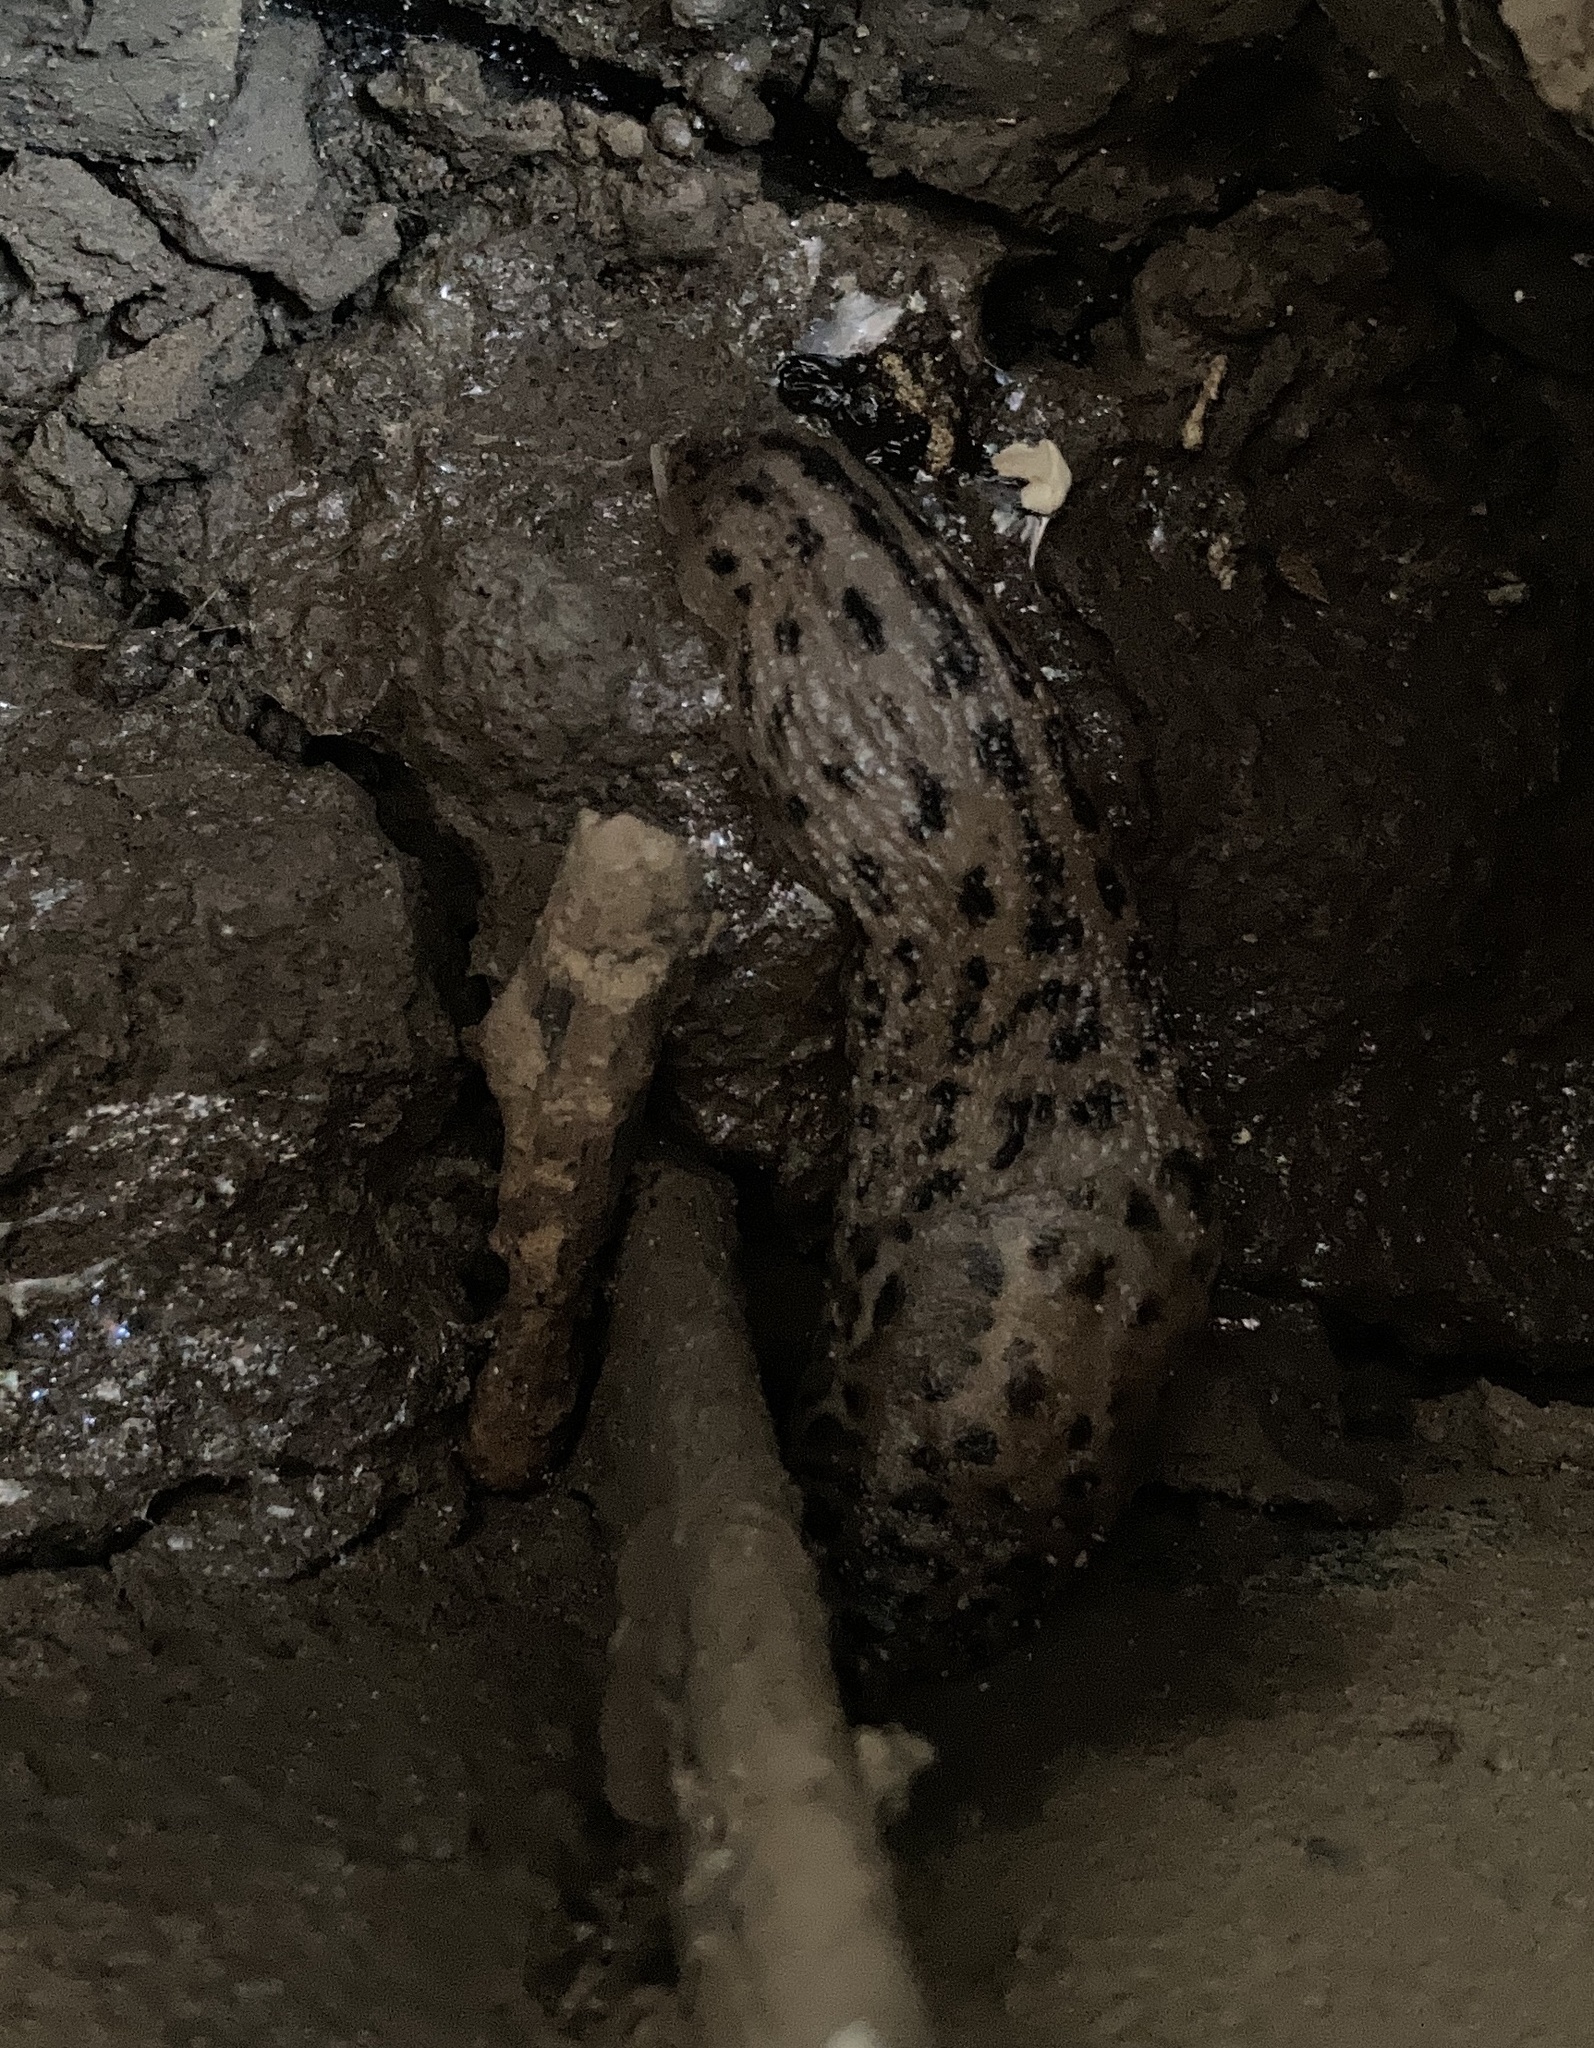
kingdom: Animalia
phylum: Mollusca
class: Gastropoda
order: Stylommatophora
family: Limacidae
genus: Limax
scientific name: Limax maximus
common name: Great grey slug
